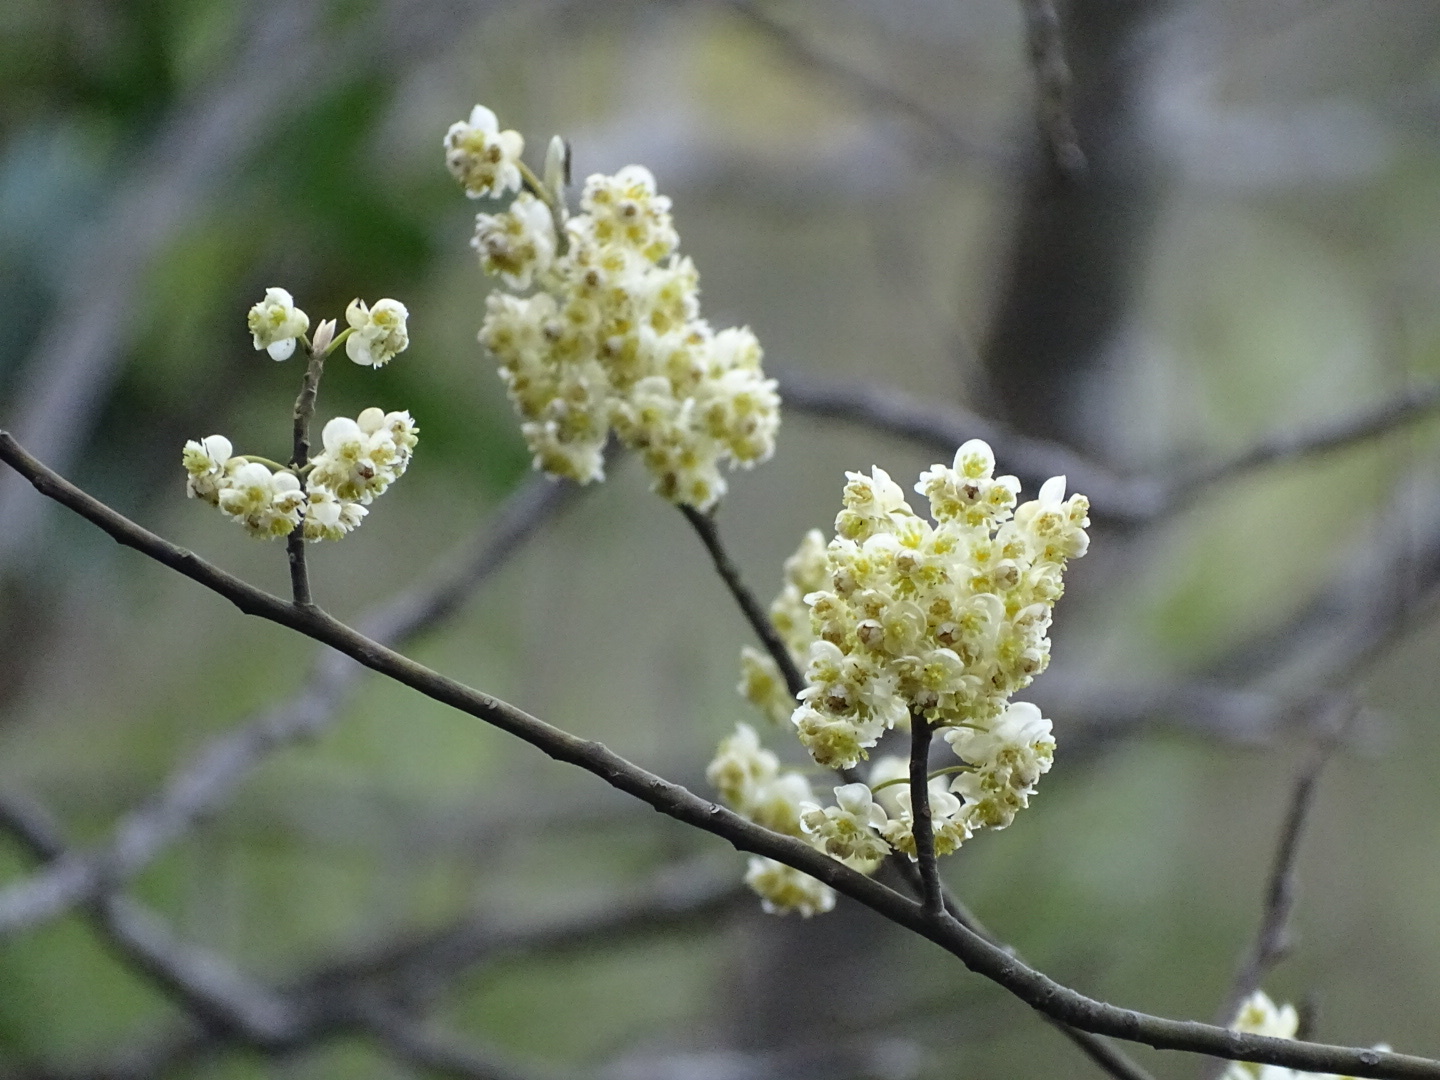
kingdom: Plantae
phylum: Tracheophyta
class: Magnoliopsida
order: Laurales
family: Lauraceae
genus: Litsea
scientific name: Litsea cubeba
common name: Mountain-pepper
